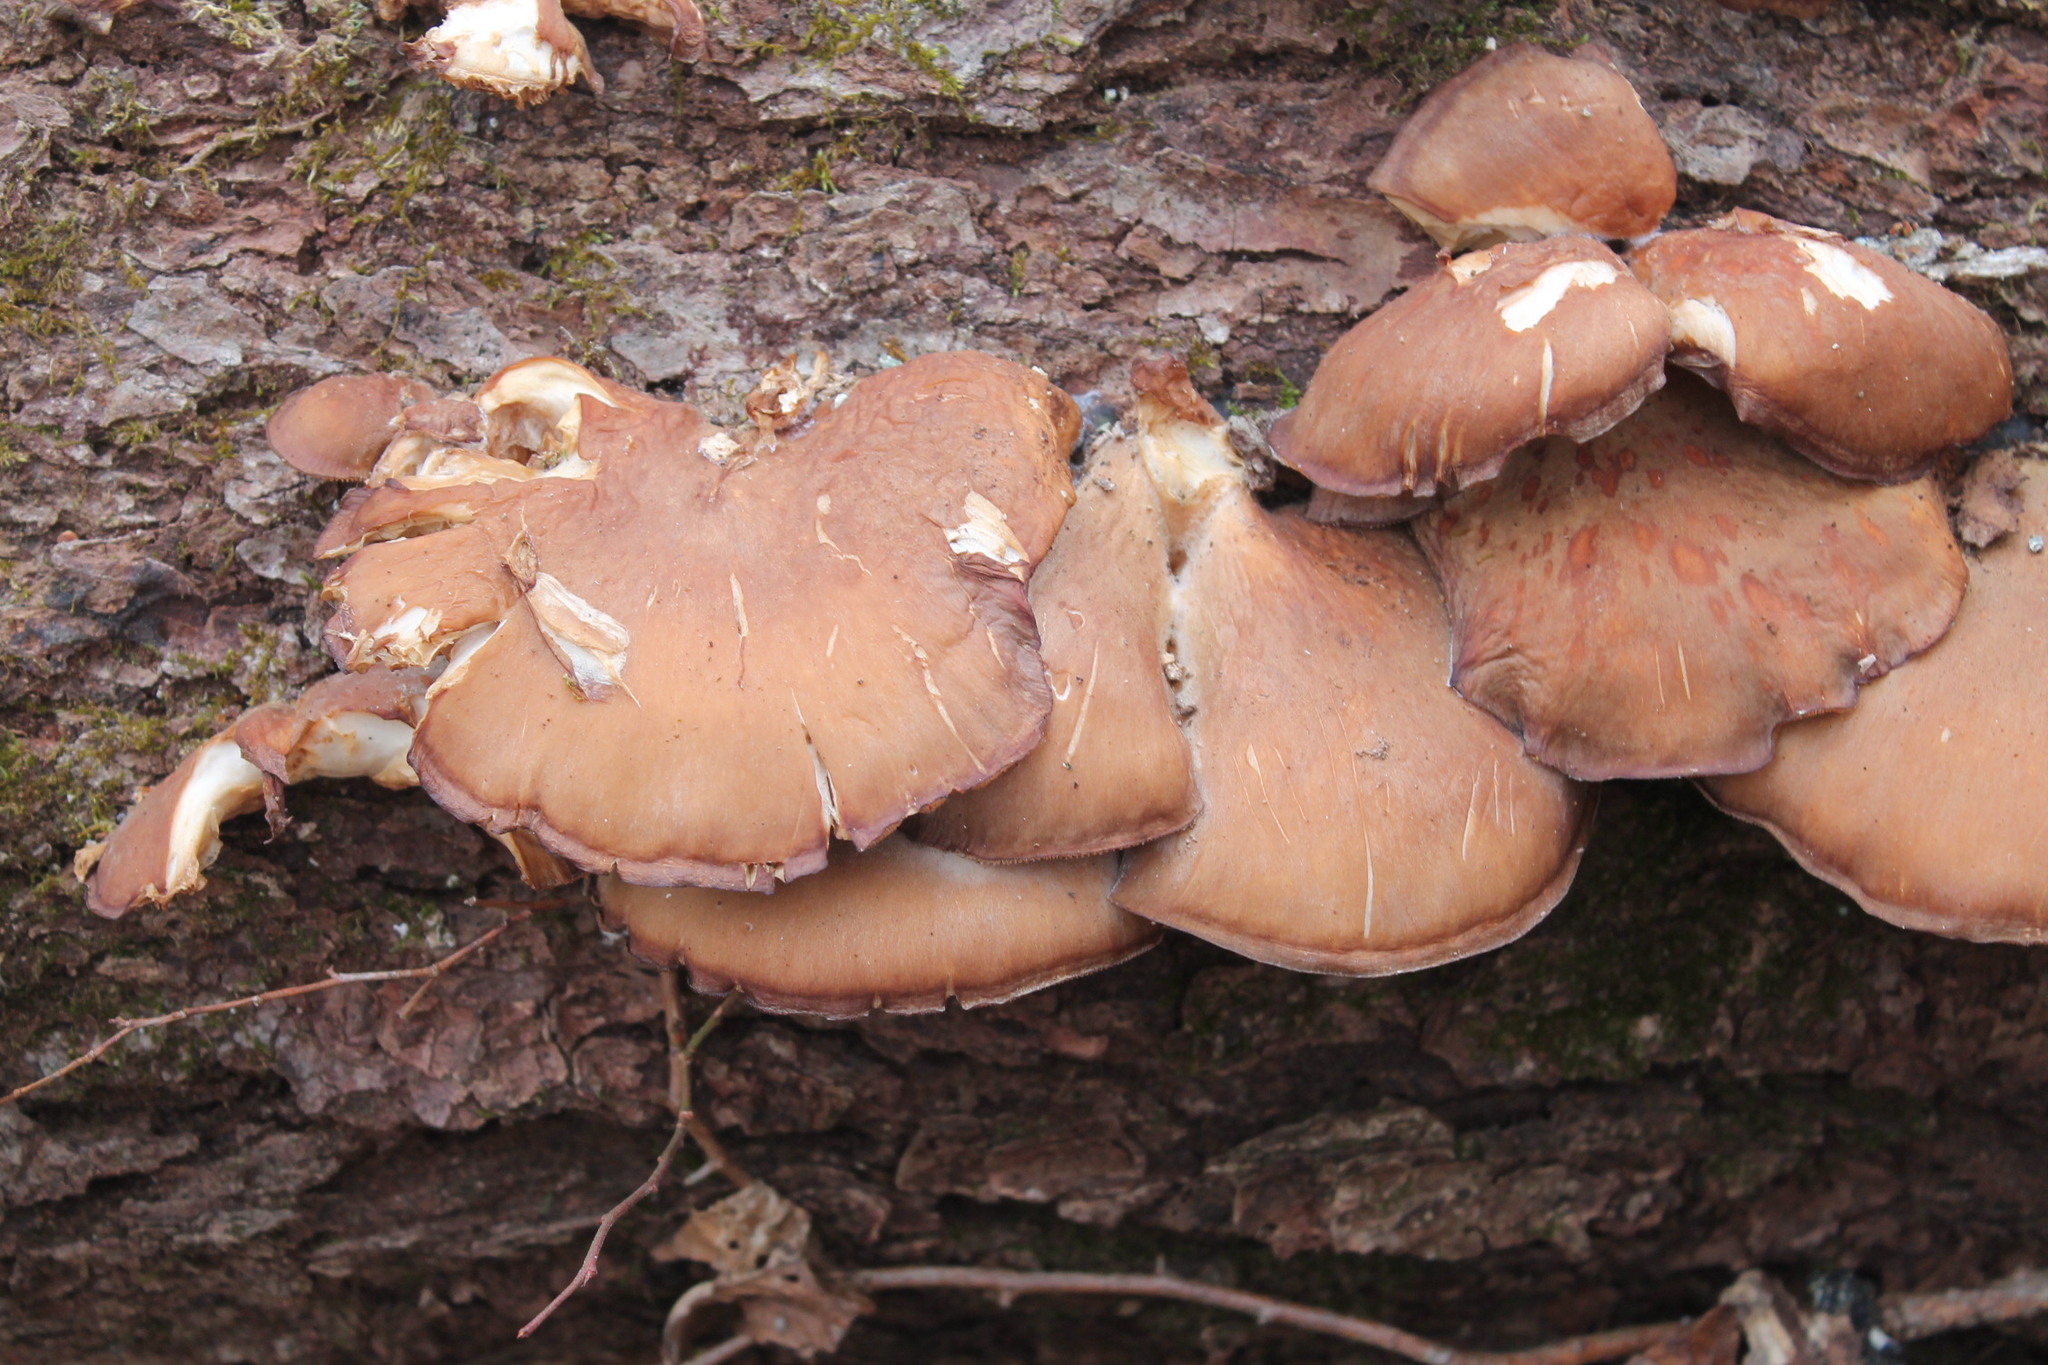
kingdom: Fungi
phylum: Basidiomycota
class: Agaricomycetes
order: Agaricales
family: Sarcomyxaceae
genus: Sarcomyxa
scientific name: Sarcomyxa serotina
